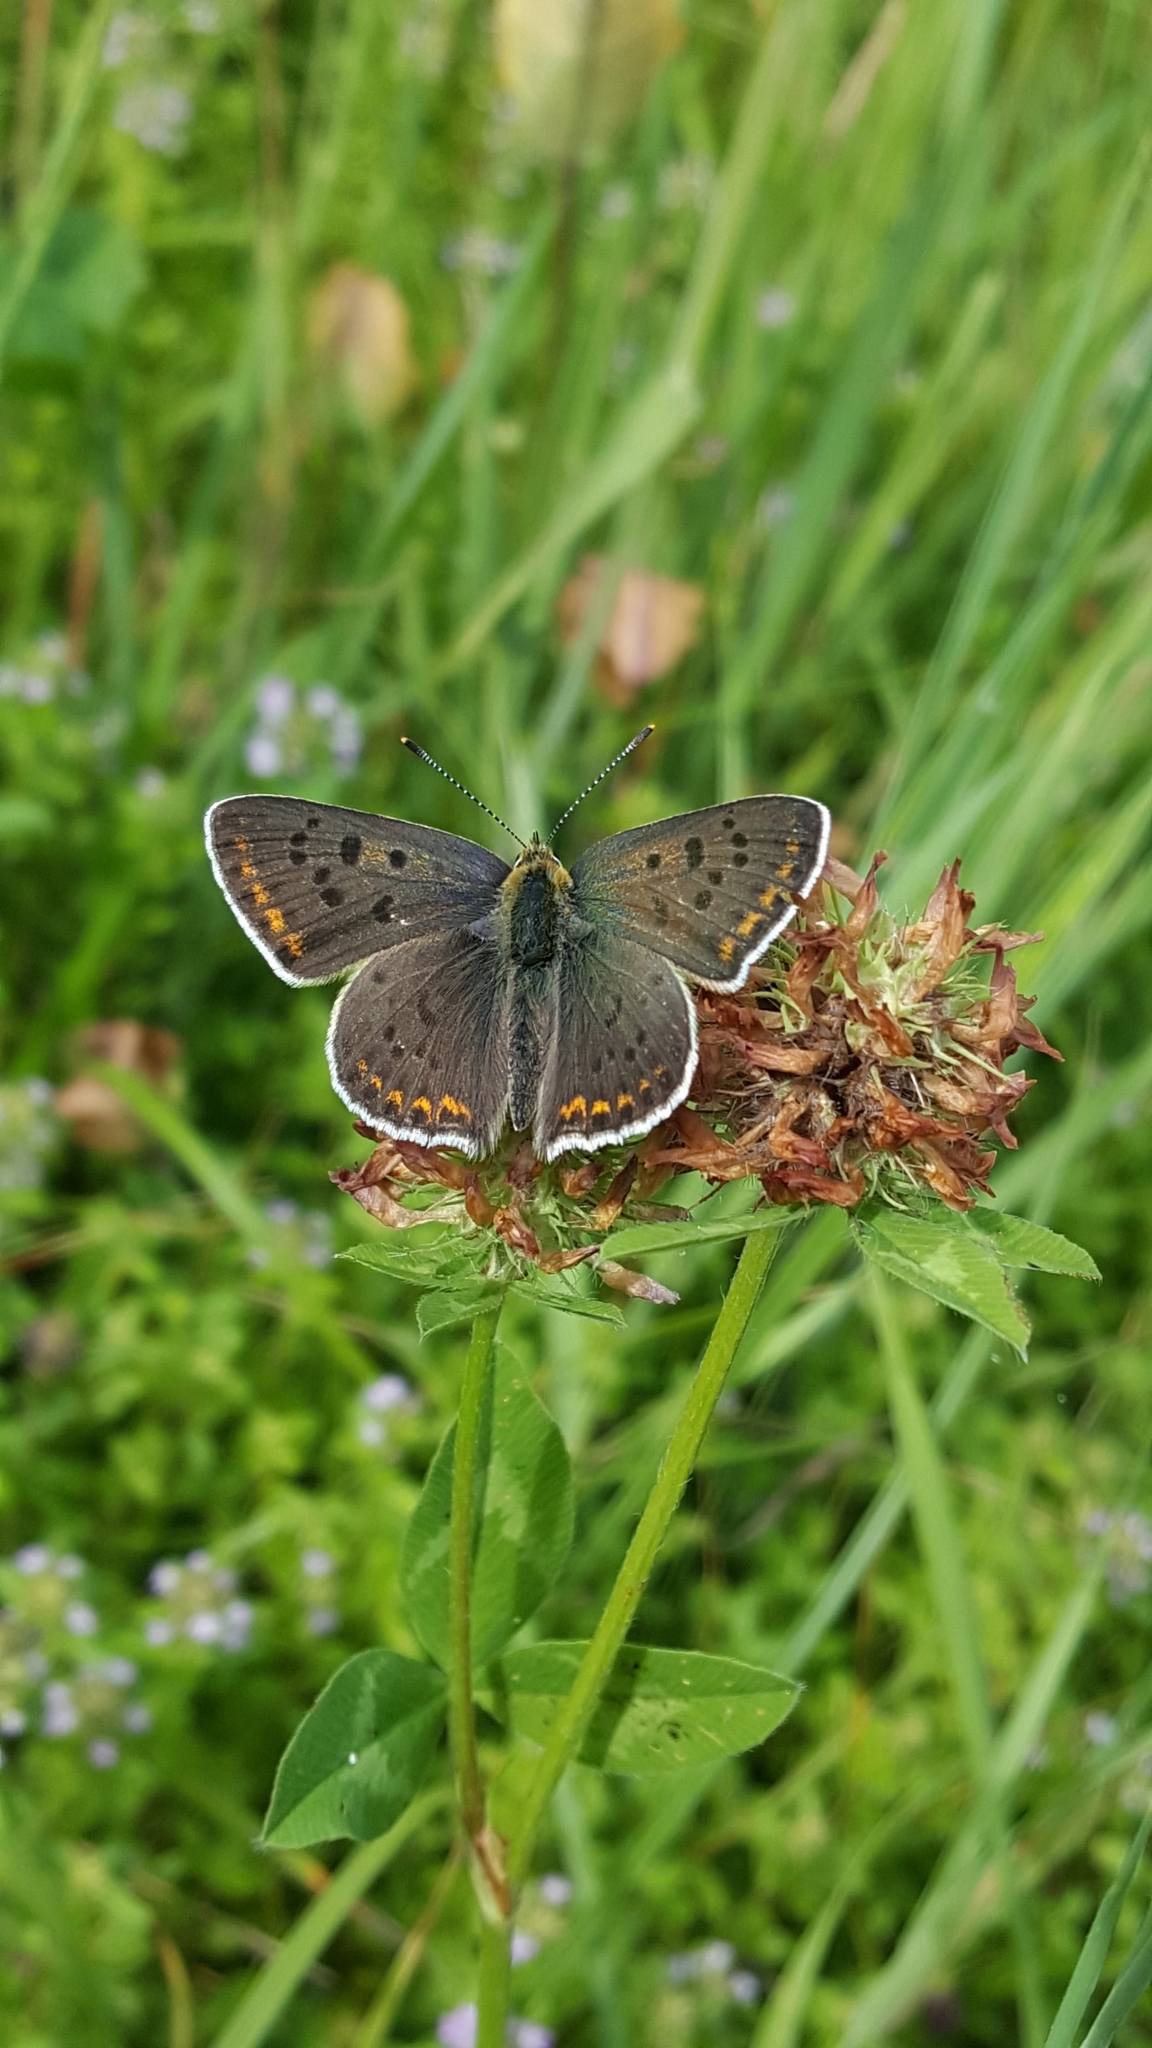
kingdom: Animalia
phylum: Arthropoda
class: Insecta
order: Lepidoptera
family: Lycaenidae
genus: Loweia
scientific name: Loweia tityrus
